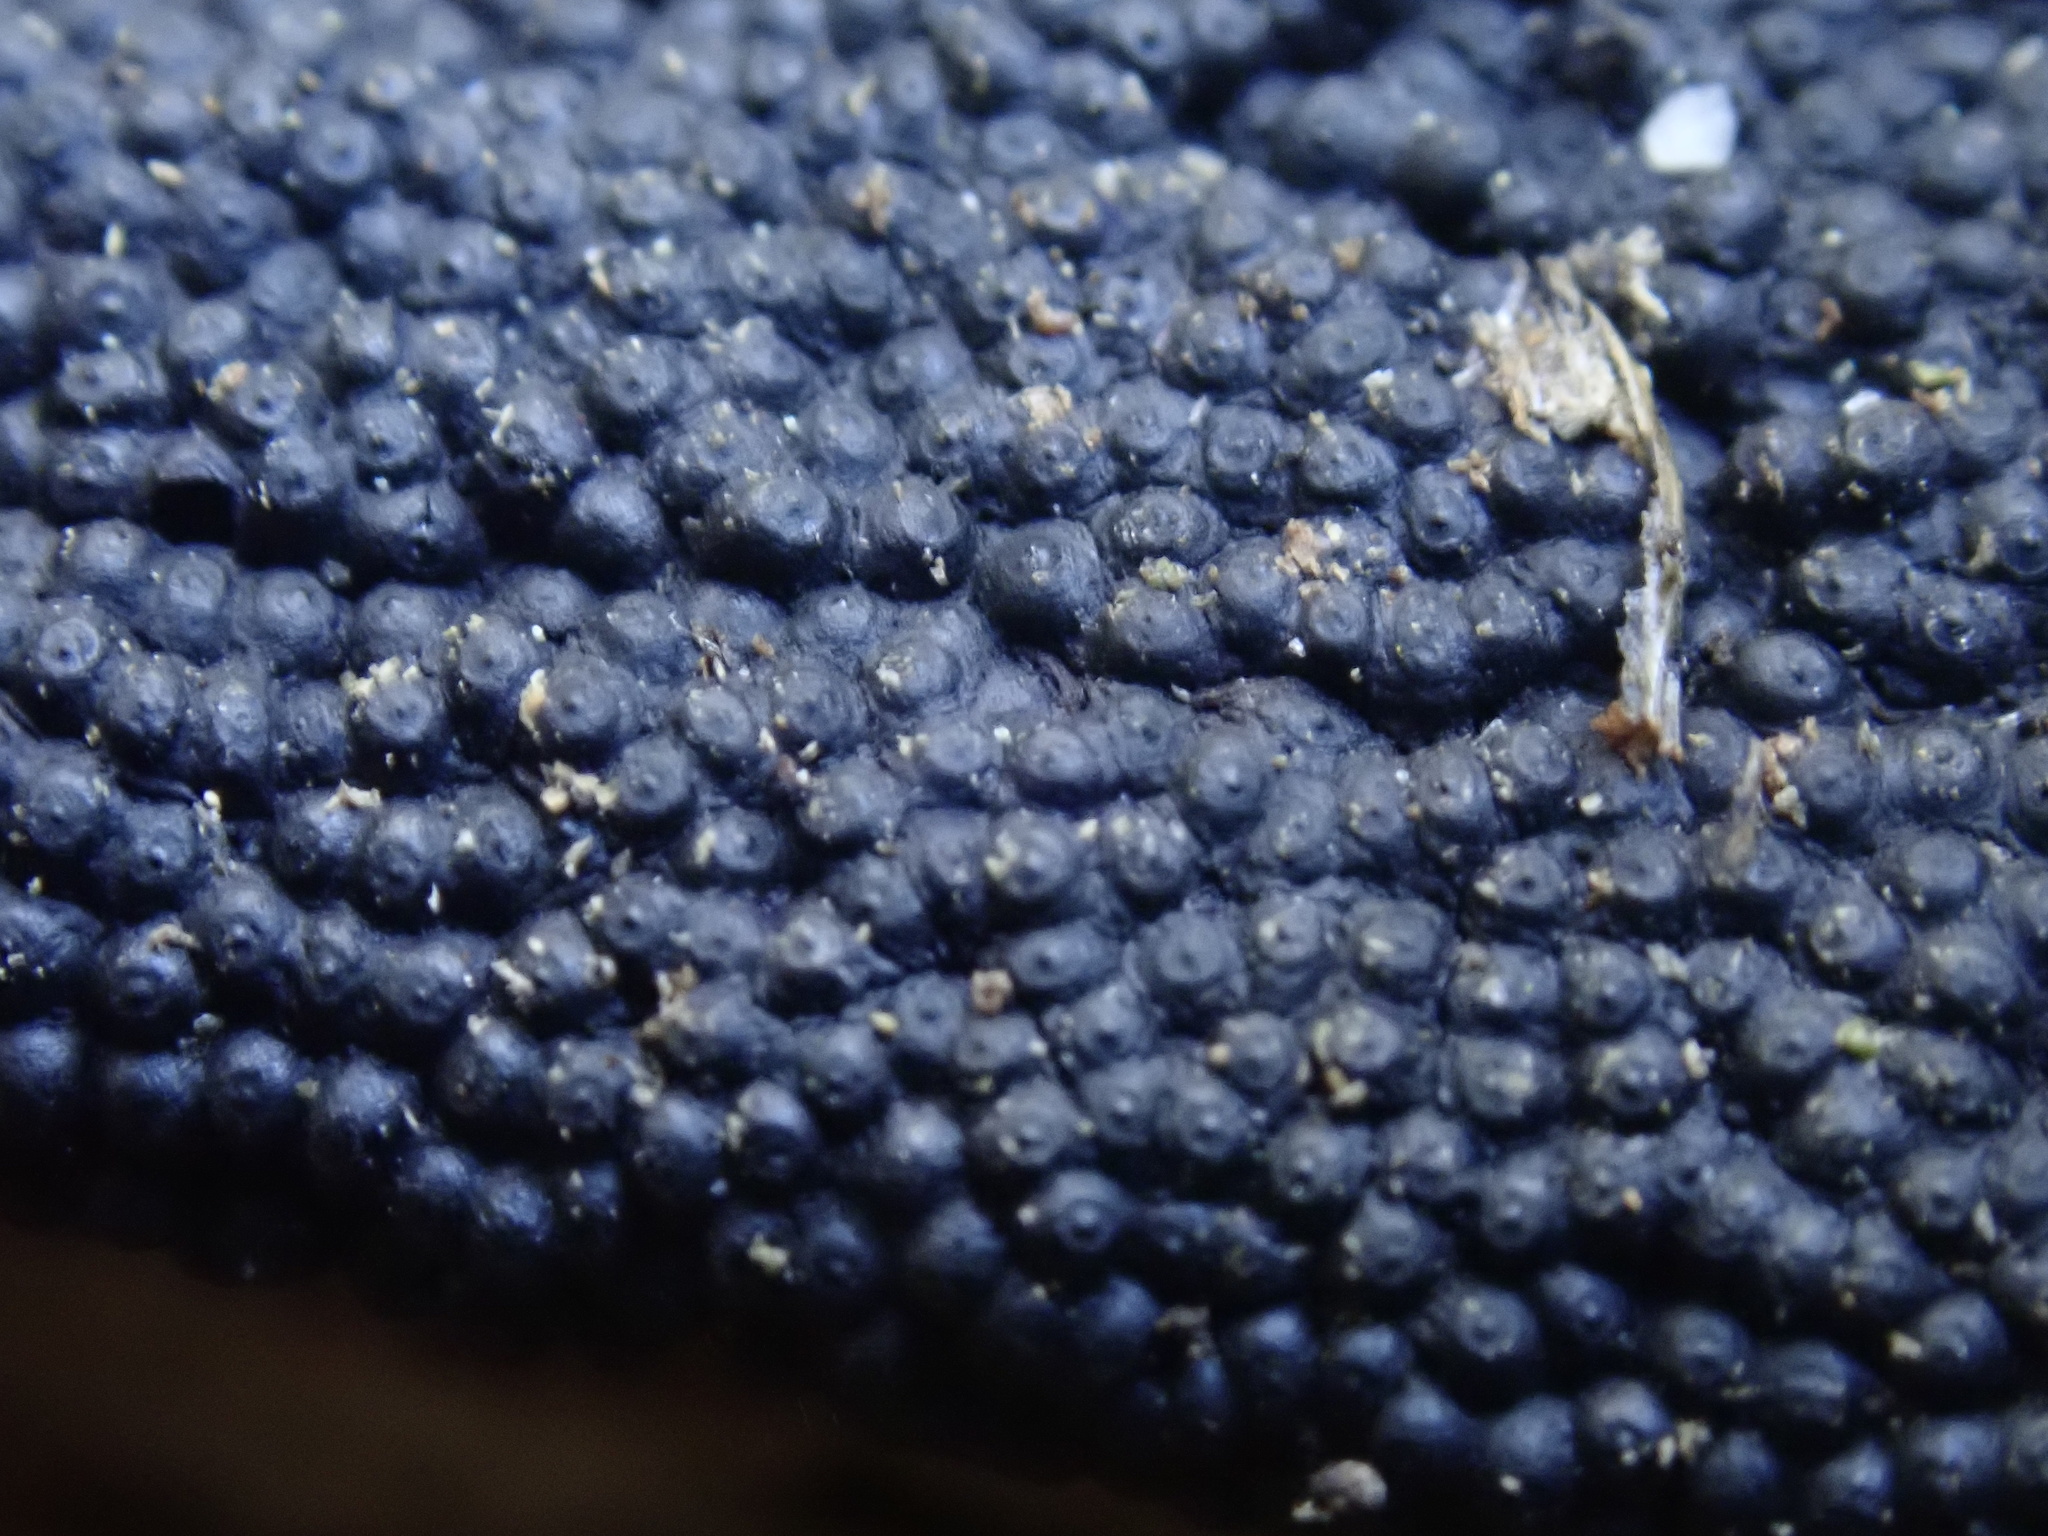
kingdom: Fungi
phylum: Ascomycota
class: Sordariomycetes
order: Xylariales
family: Hypoxylaceae
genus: Annulohypoxylon
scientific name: Annulohypoxylon bovei
